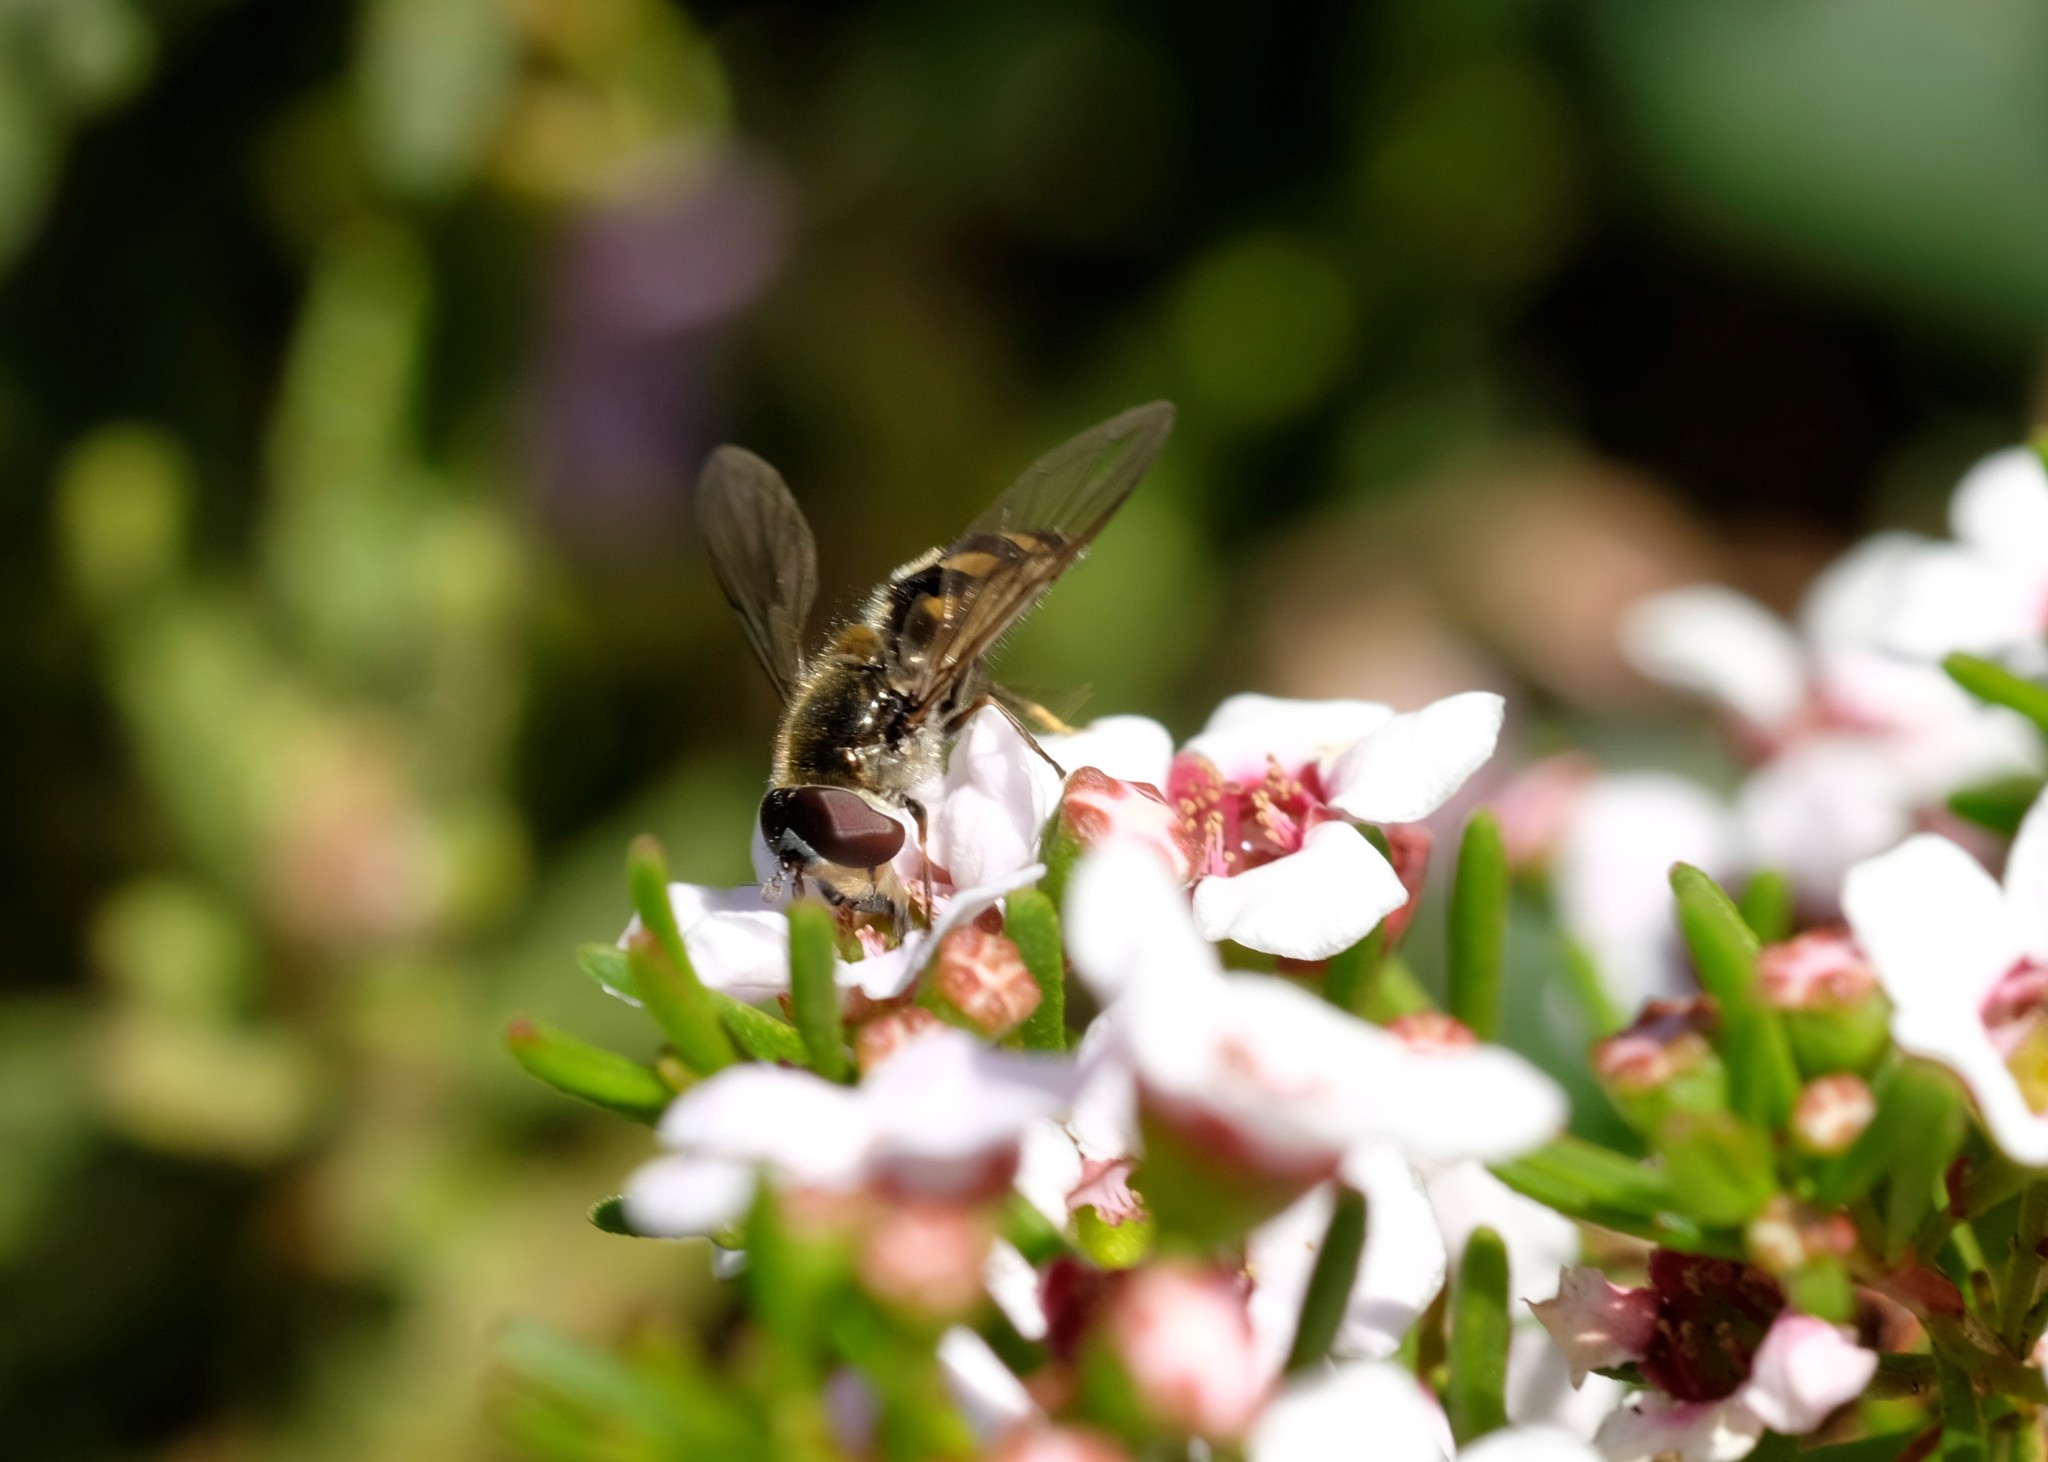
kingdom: Animalia
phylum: Arthropoda
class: Insecta
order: Diptera
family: Syrphidae
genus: Melangyna
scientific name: Melangyna viridiceps
